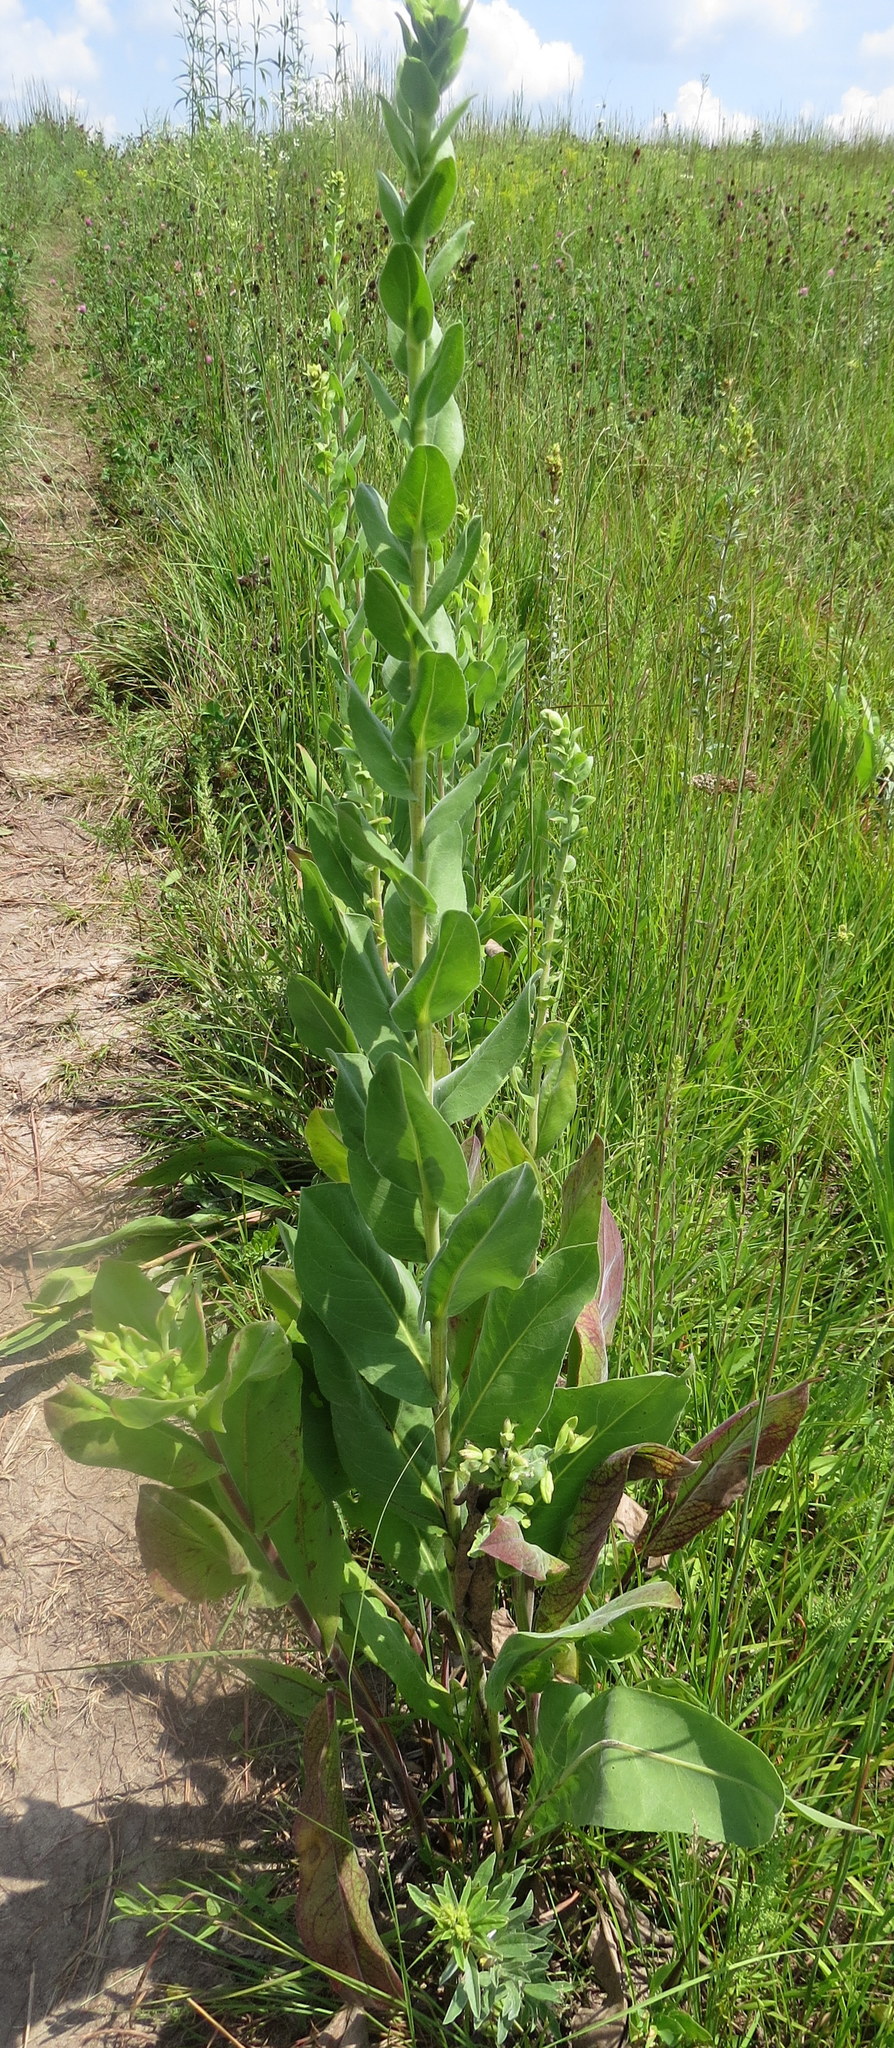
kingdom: Plantae
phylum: Tracheophyta
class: Magnoliopsida
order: Lamiales
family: Scrophulariaceae
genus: Verbascum
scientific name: Verbascum thapsus
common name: Common mullein
